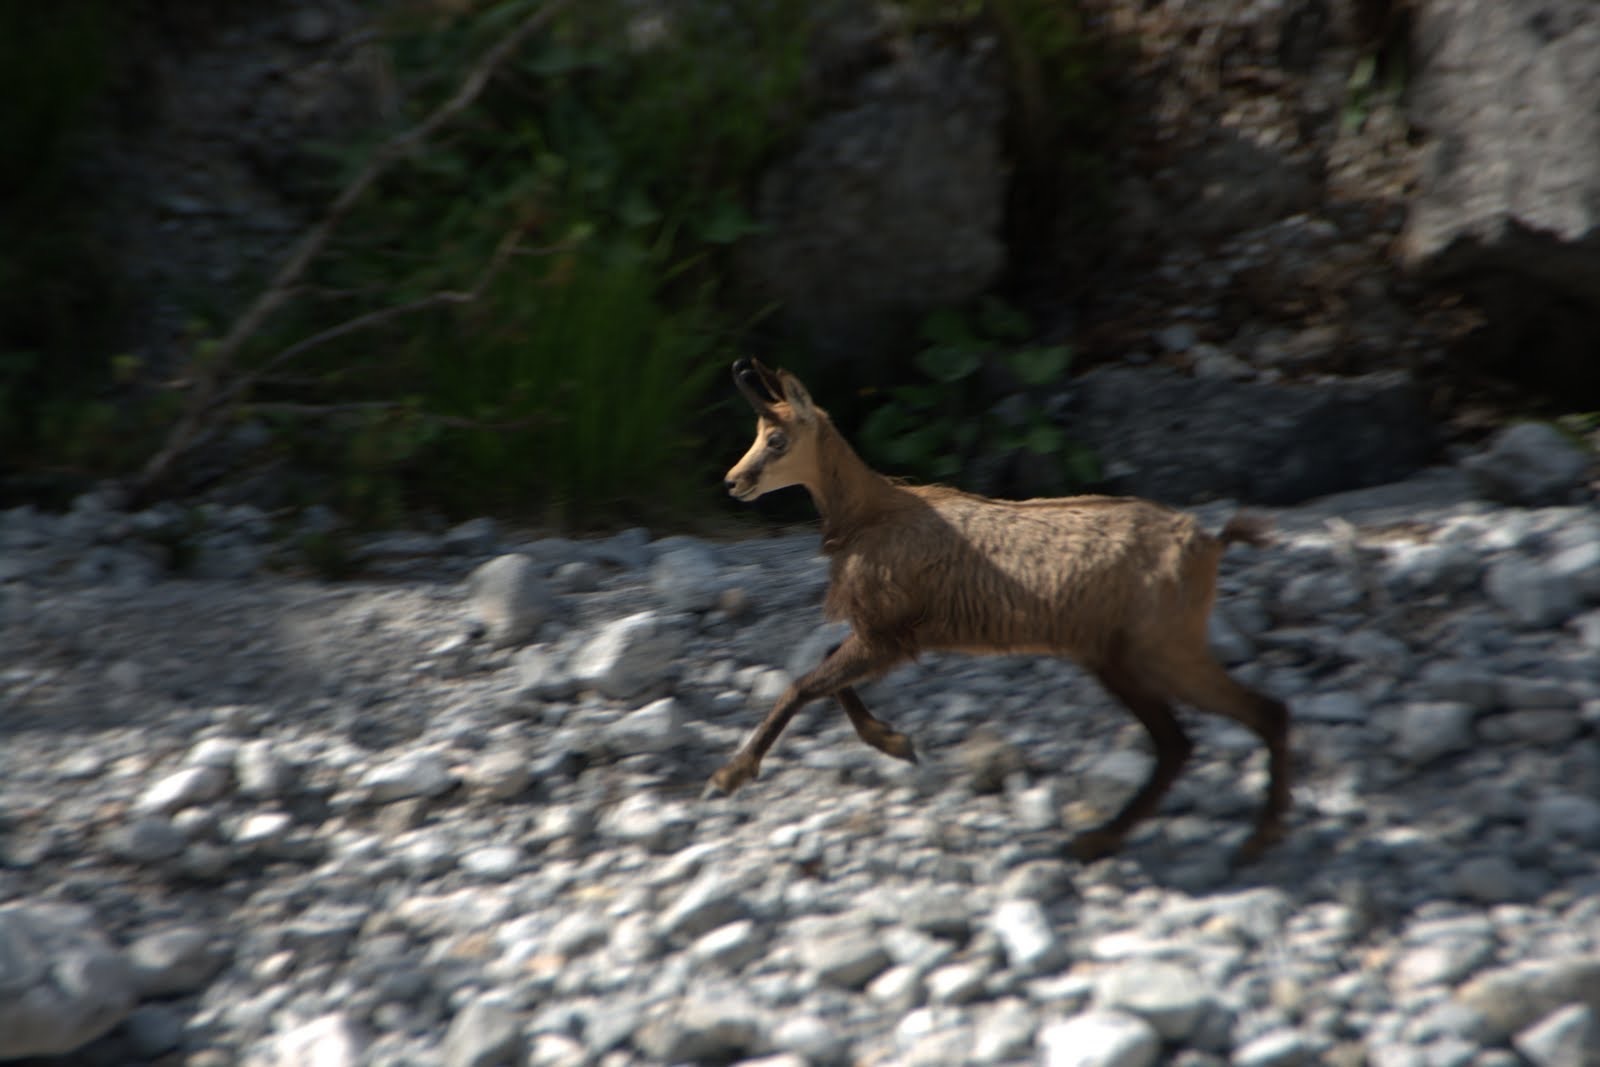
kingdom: Animalia
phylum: Chordata
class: Mammalia
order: Artiodactyla
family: Bovidae
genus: Rupicapra
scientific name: Rupicapra rupicapra
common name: Chamois
